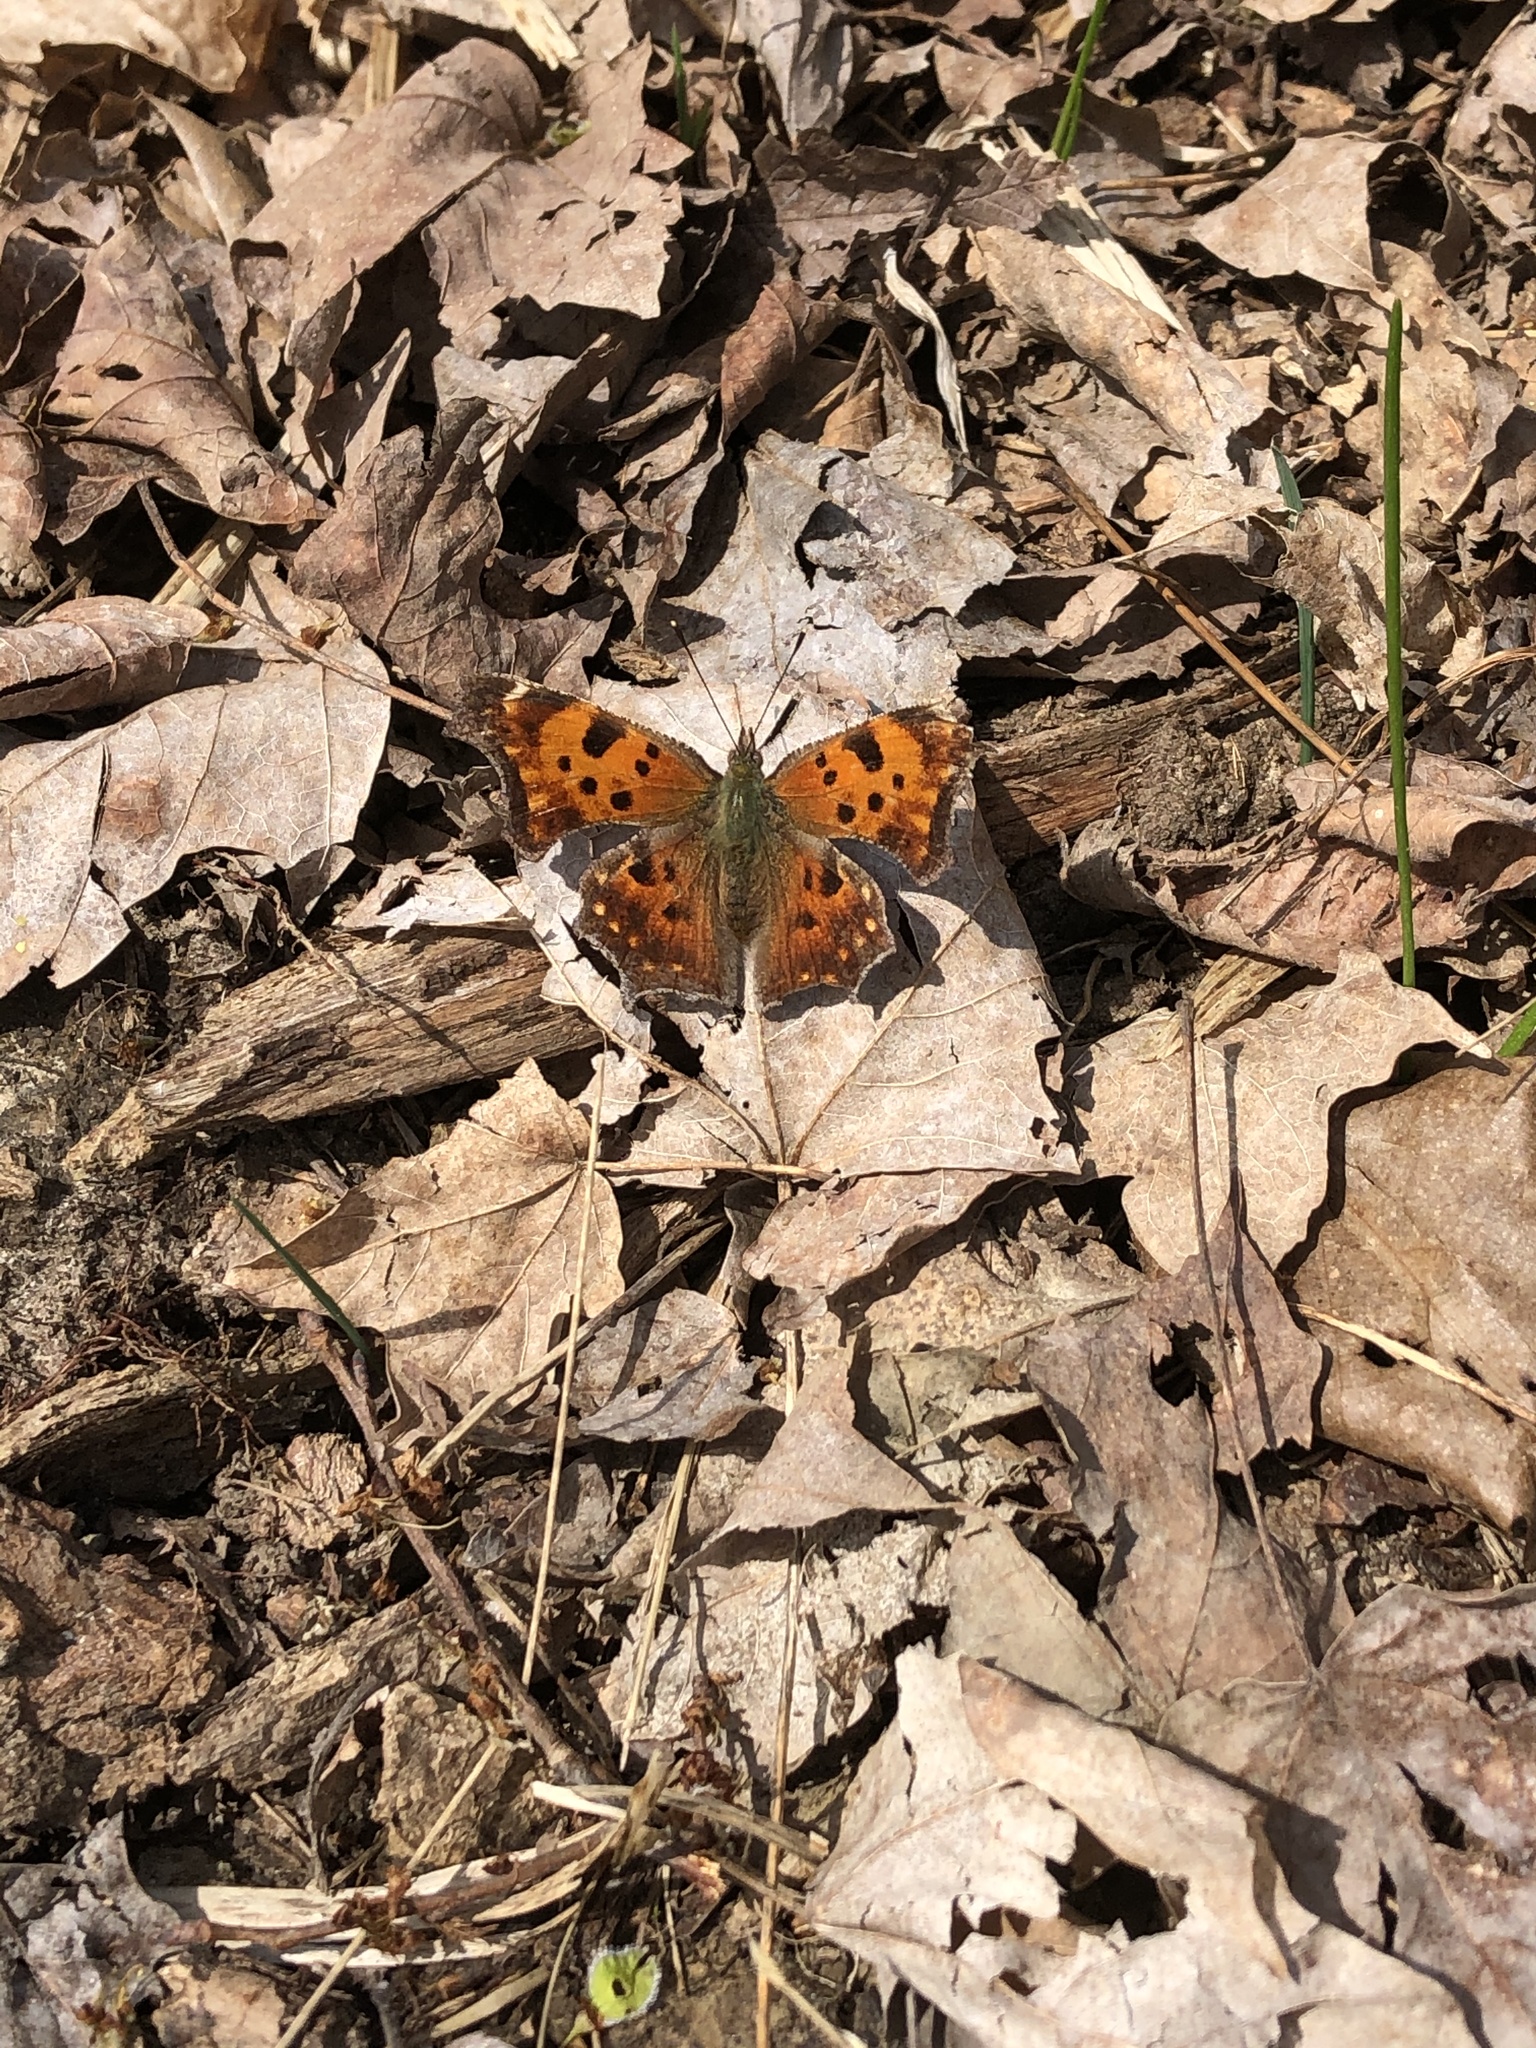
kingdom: Animalia
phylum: Arthropoda
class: Insecta
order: Lepidoptera
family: Nymphalidae
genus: Polygonia
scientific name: Polygonia comma
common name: Eastern comma
